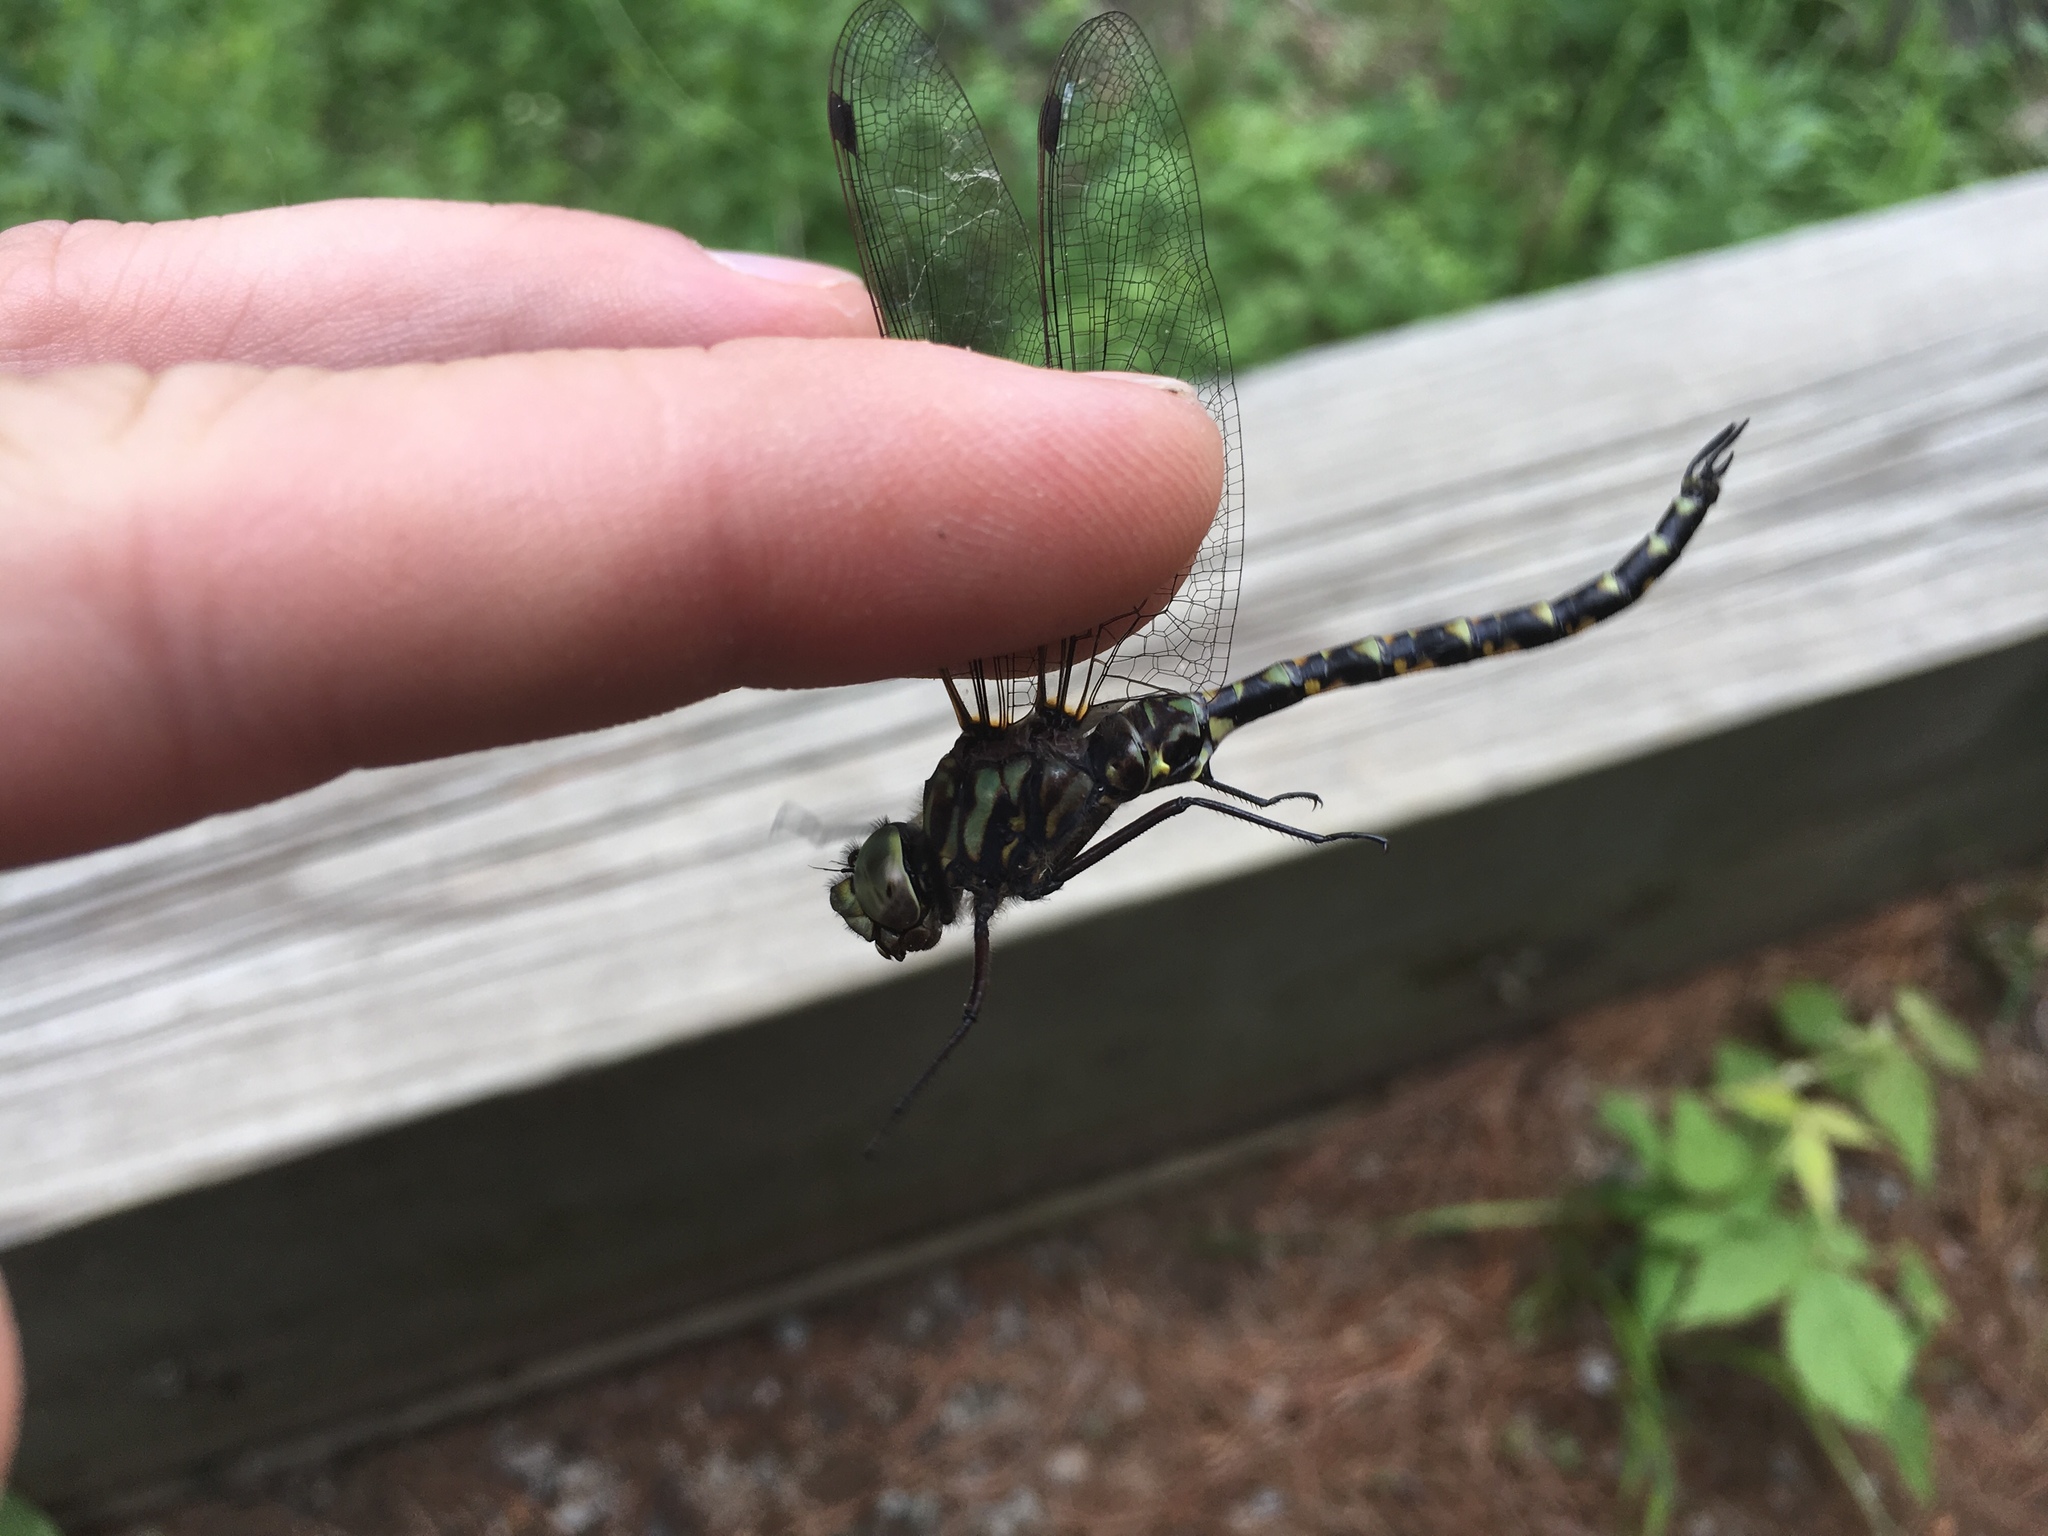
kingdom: Animalia
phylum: Arthropoda
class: Insecta
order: Odonata
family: Aeshnidae
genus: Gomphaeschna
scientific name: Gomphaeschna furcillata
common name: Harlequin darner
